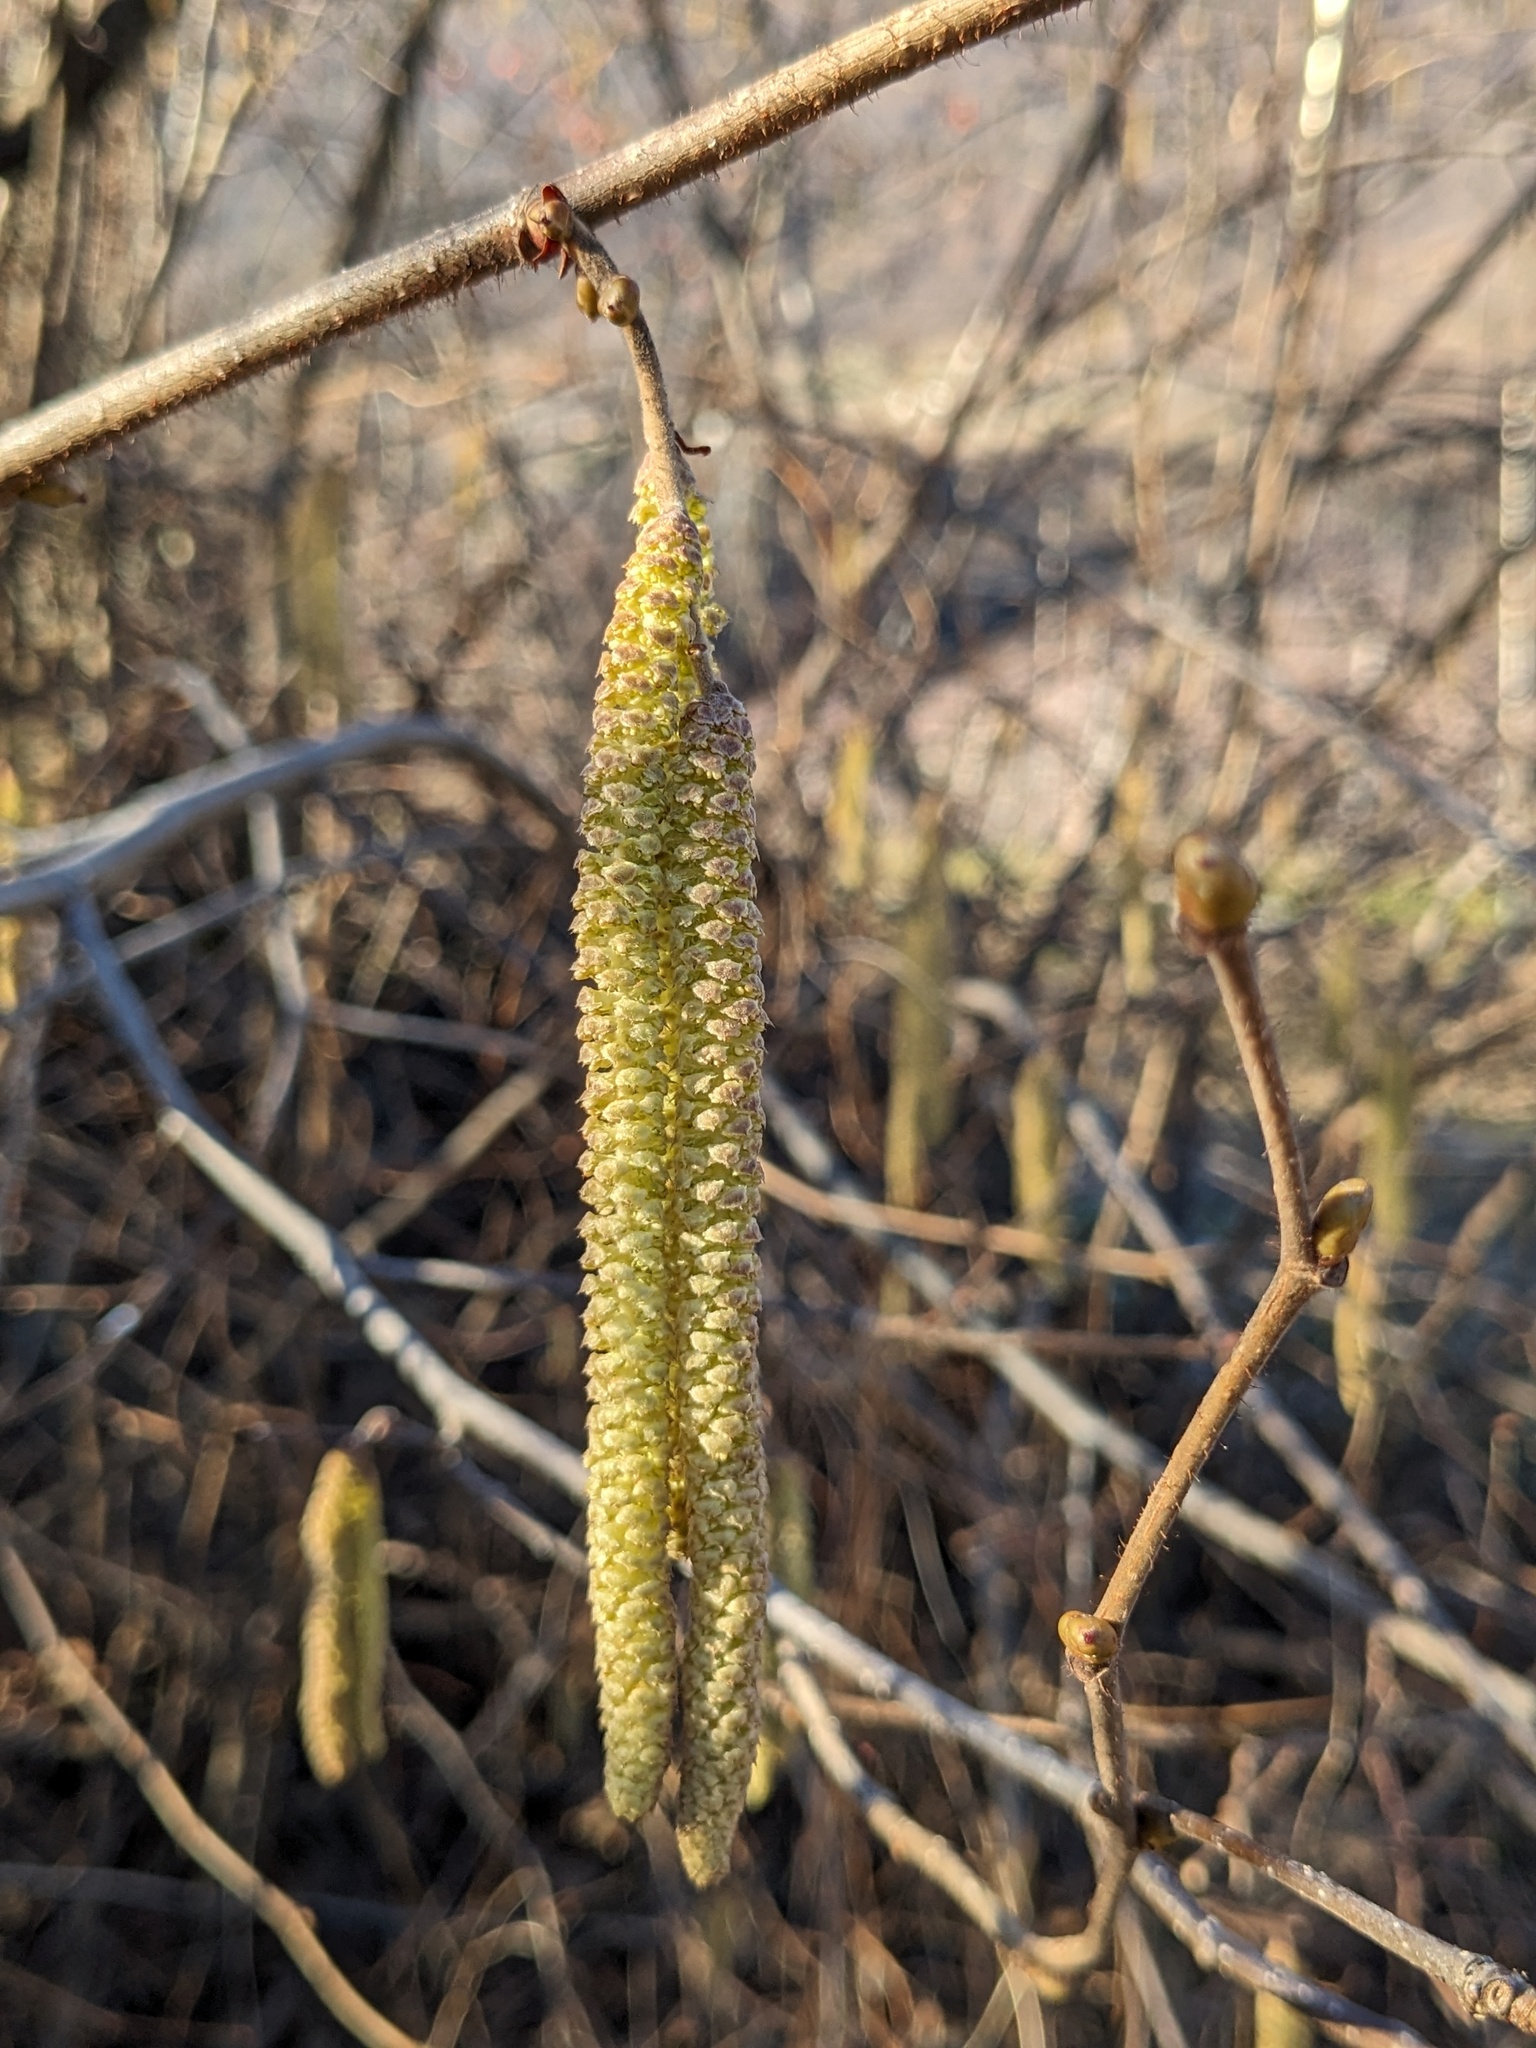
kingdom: Plantae
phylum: Tracheophyta
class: Magnoliopsida
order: Fagales
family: Betulaceae
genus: Corylus
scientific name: Corylus avellana
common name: European hazel
